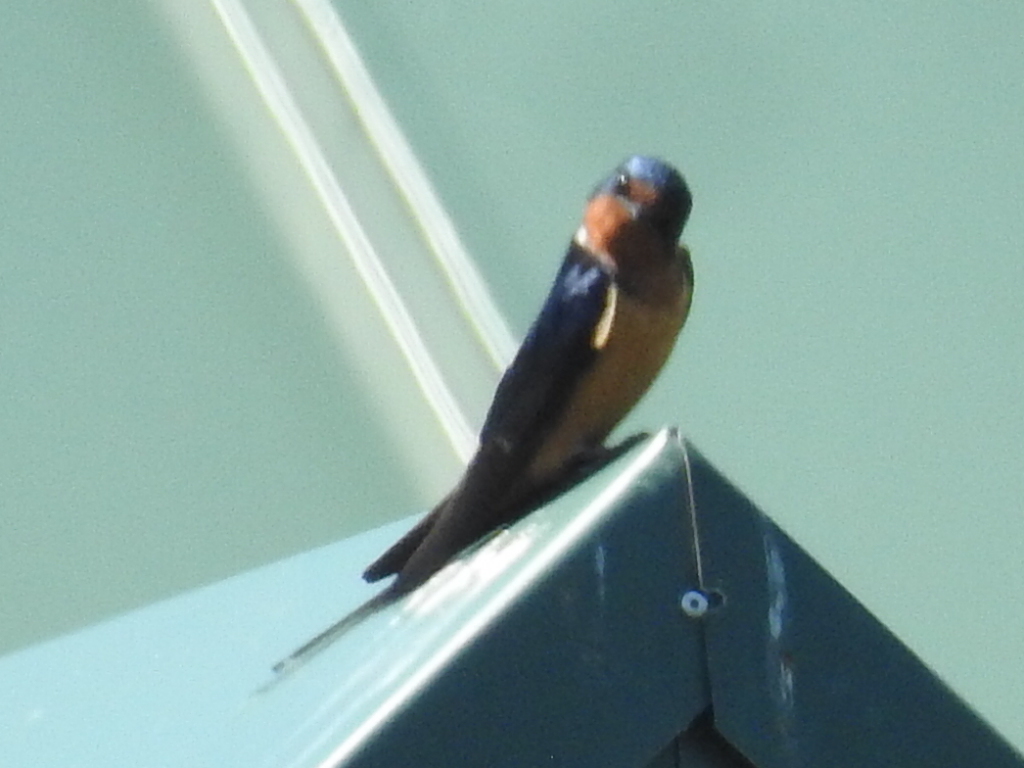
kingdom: Animalia
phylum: Chordata
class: Aves
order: Passeriformes
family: Hirundinidae
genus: Hirundo
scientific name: Hirundo rustica
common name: Barn swallow
